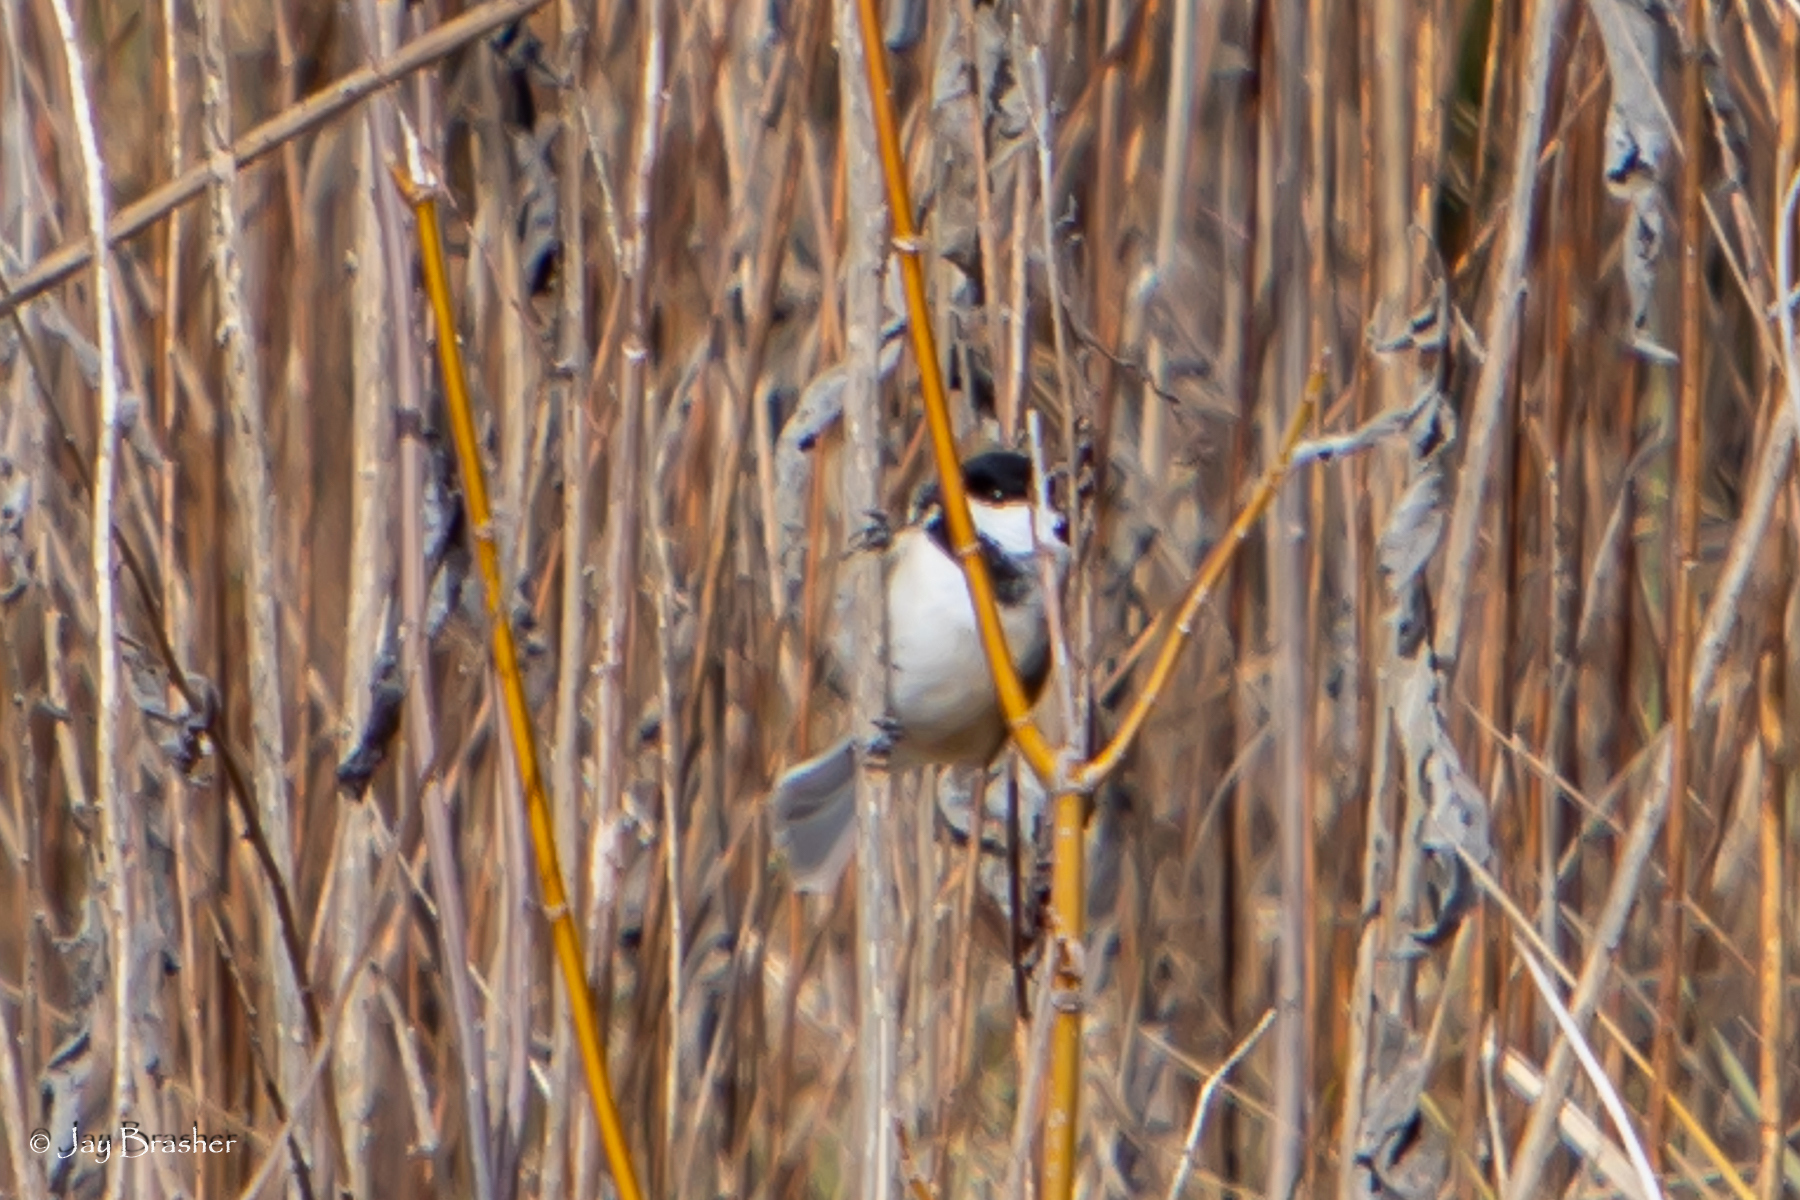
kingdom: Animalia
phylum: Chordata
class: Aves
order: Passeriformes
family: Paridae
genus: Poecile
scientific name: Poecile carolinensis
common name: Carolina chickadee
